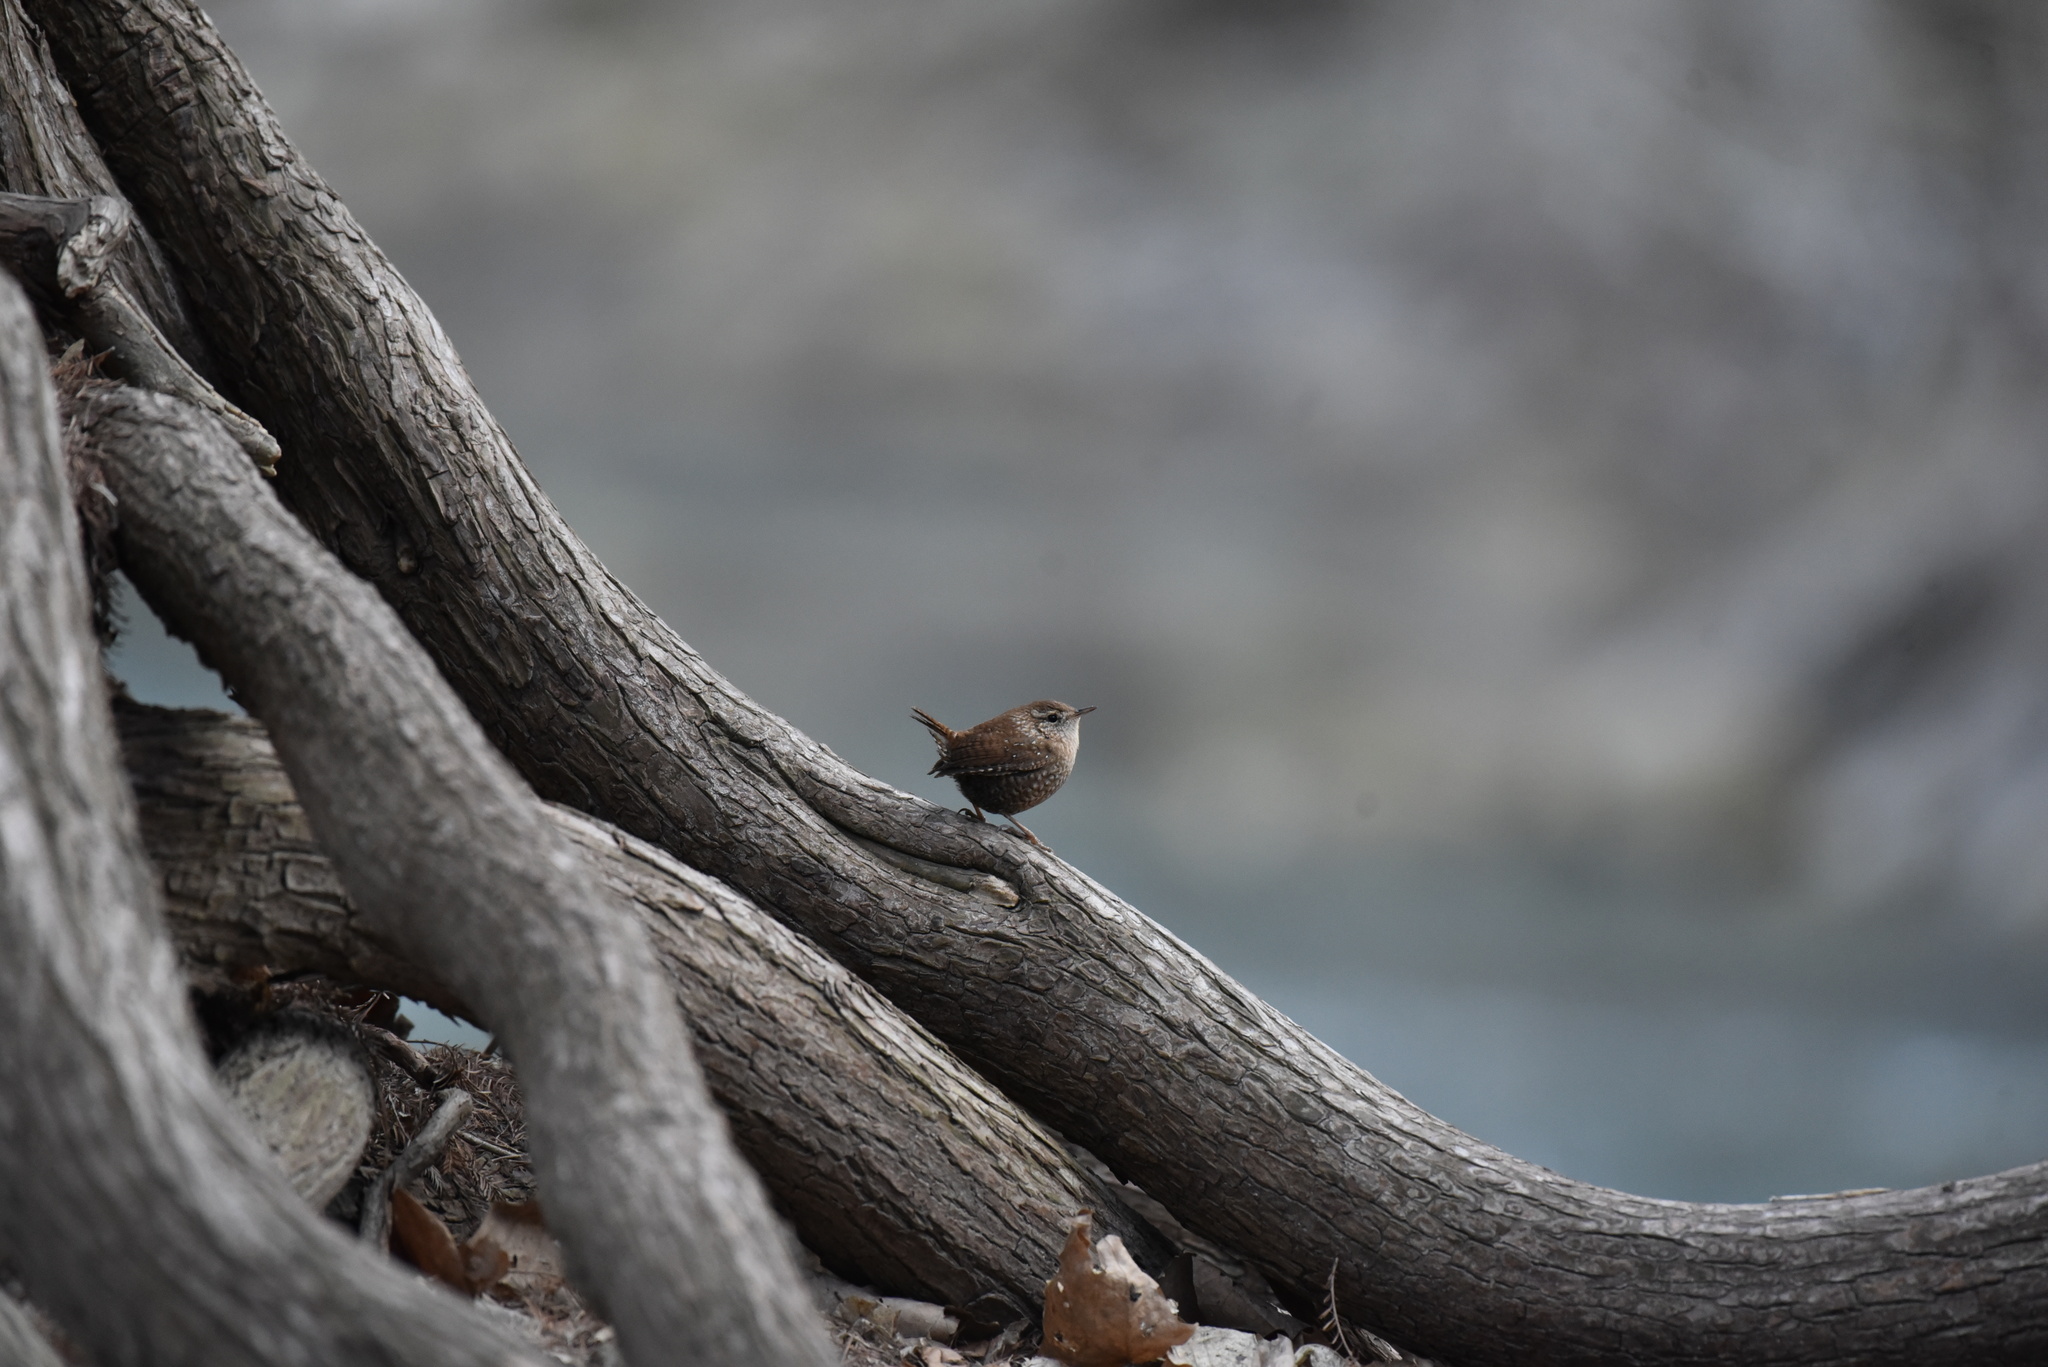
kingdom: Animalia
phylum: Chordata
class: Aves
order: Passeriformes
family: Troglodytidae
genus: Troglodytes
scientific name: Troglodytes hiemalis
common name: Winter wren
